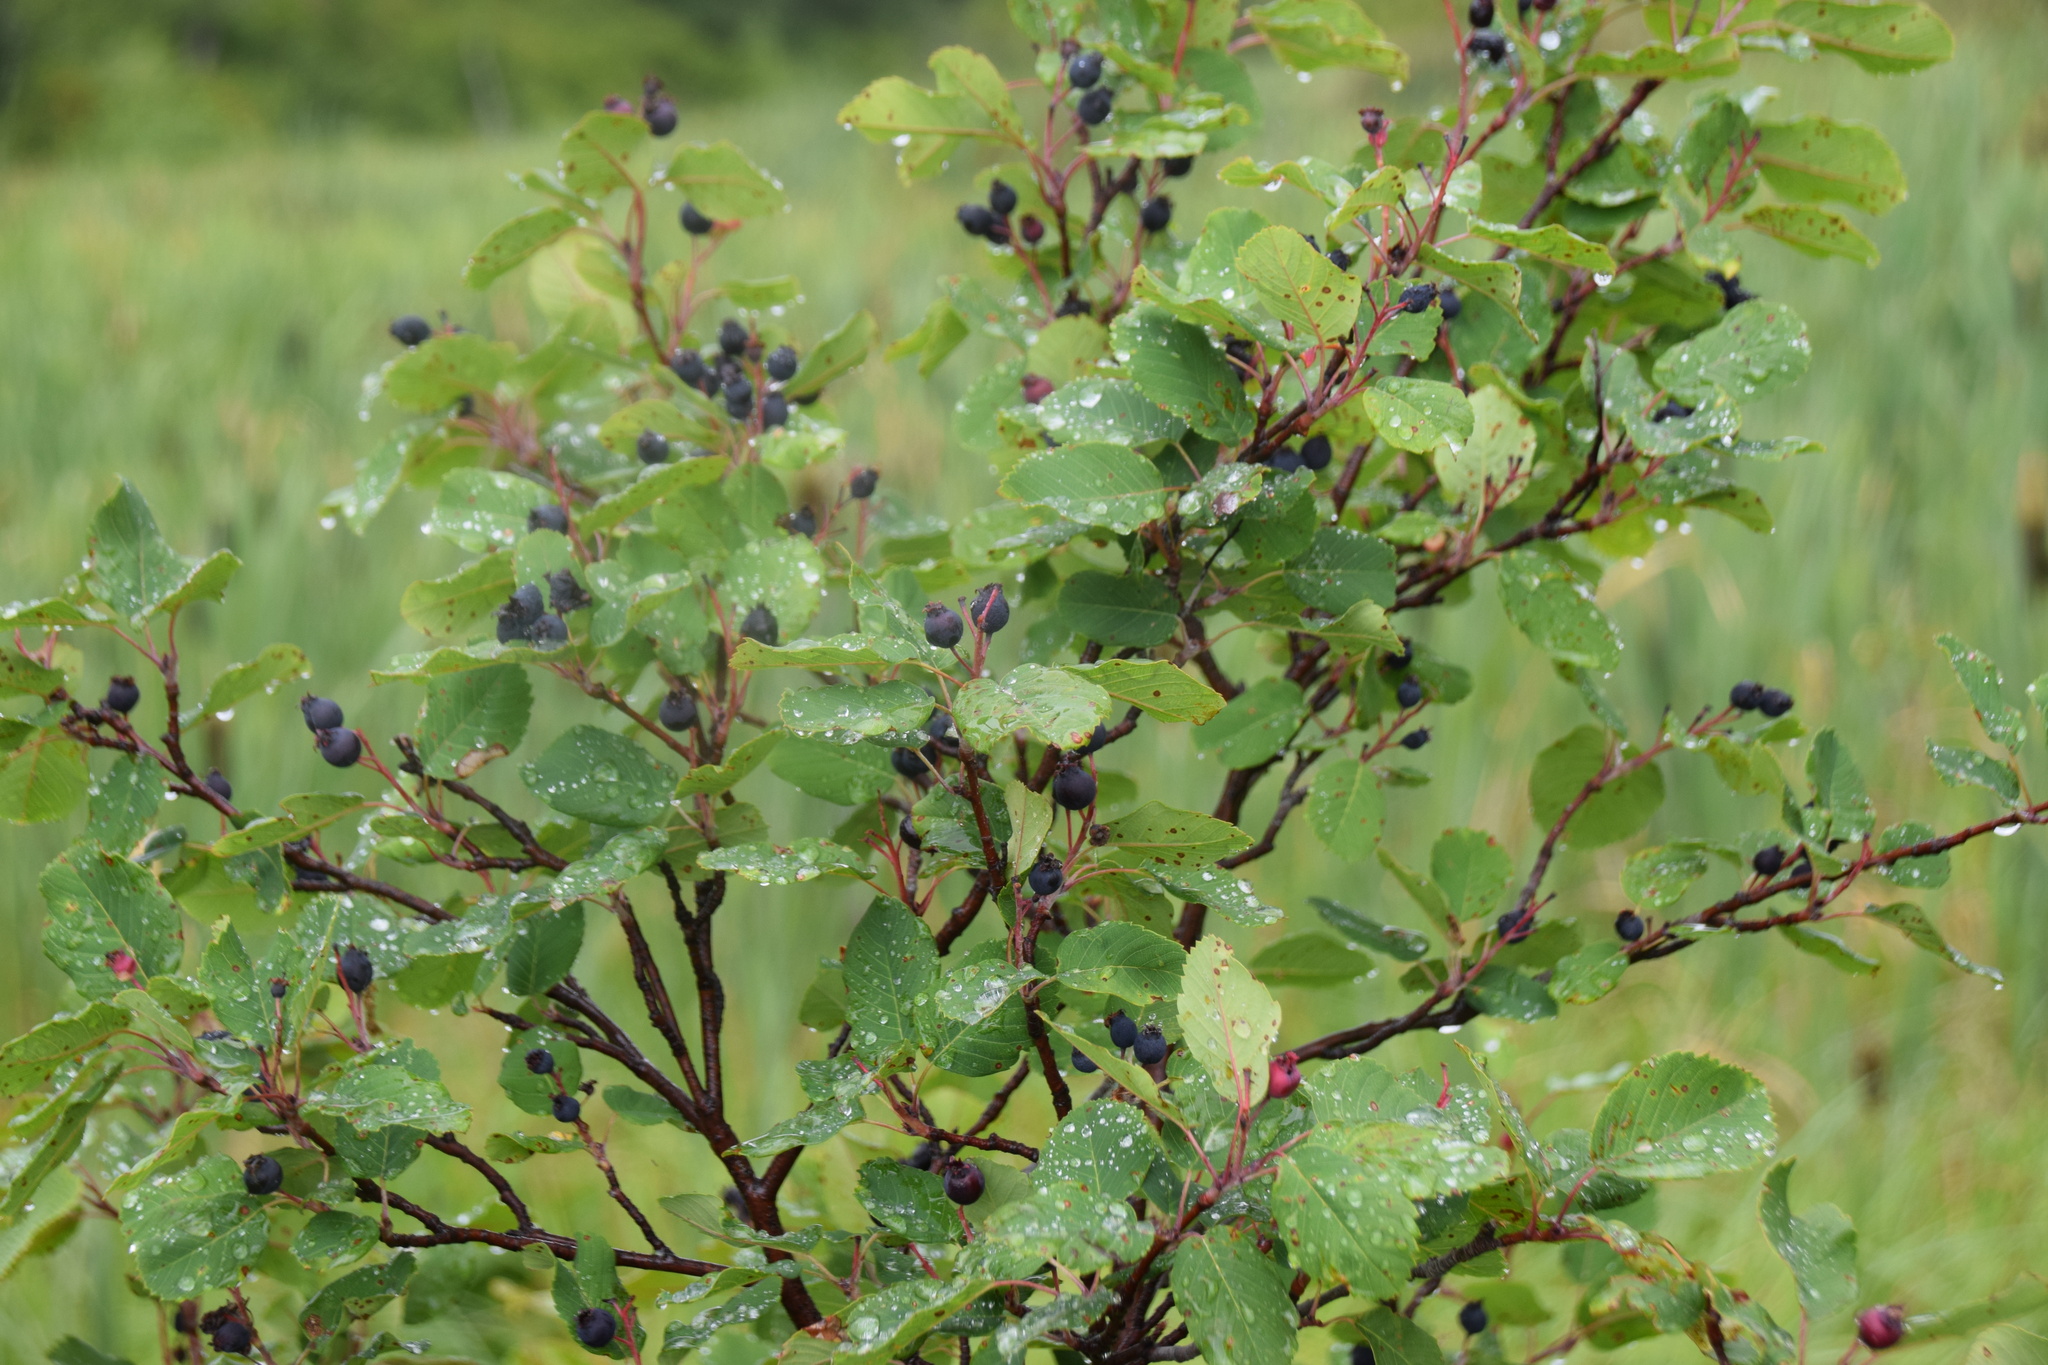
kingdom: Plantae
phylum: Tracheophyta
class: Magnoliopsida
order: Rosales
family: Rosaceae
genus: Amelanchier
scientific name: Amelanchier alnifolia
